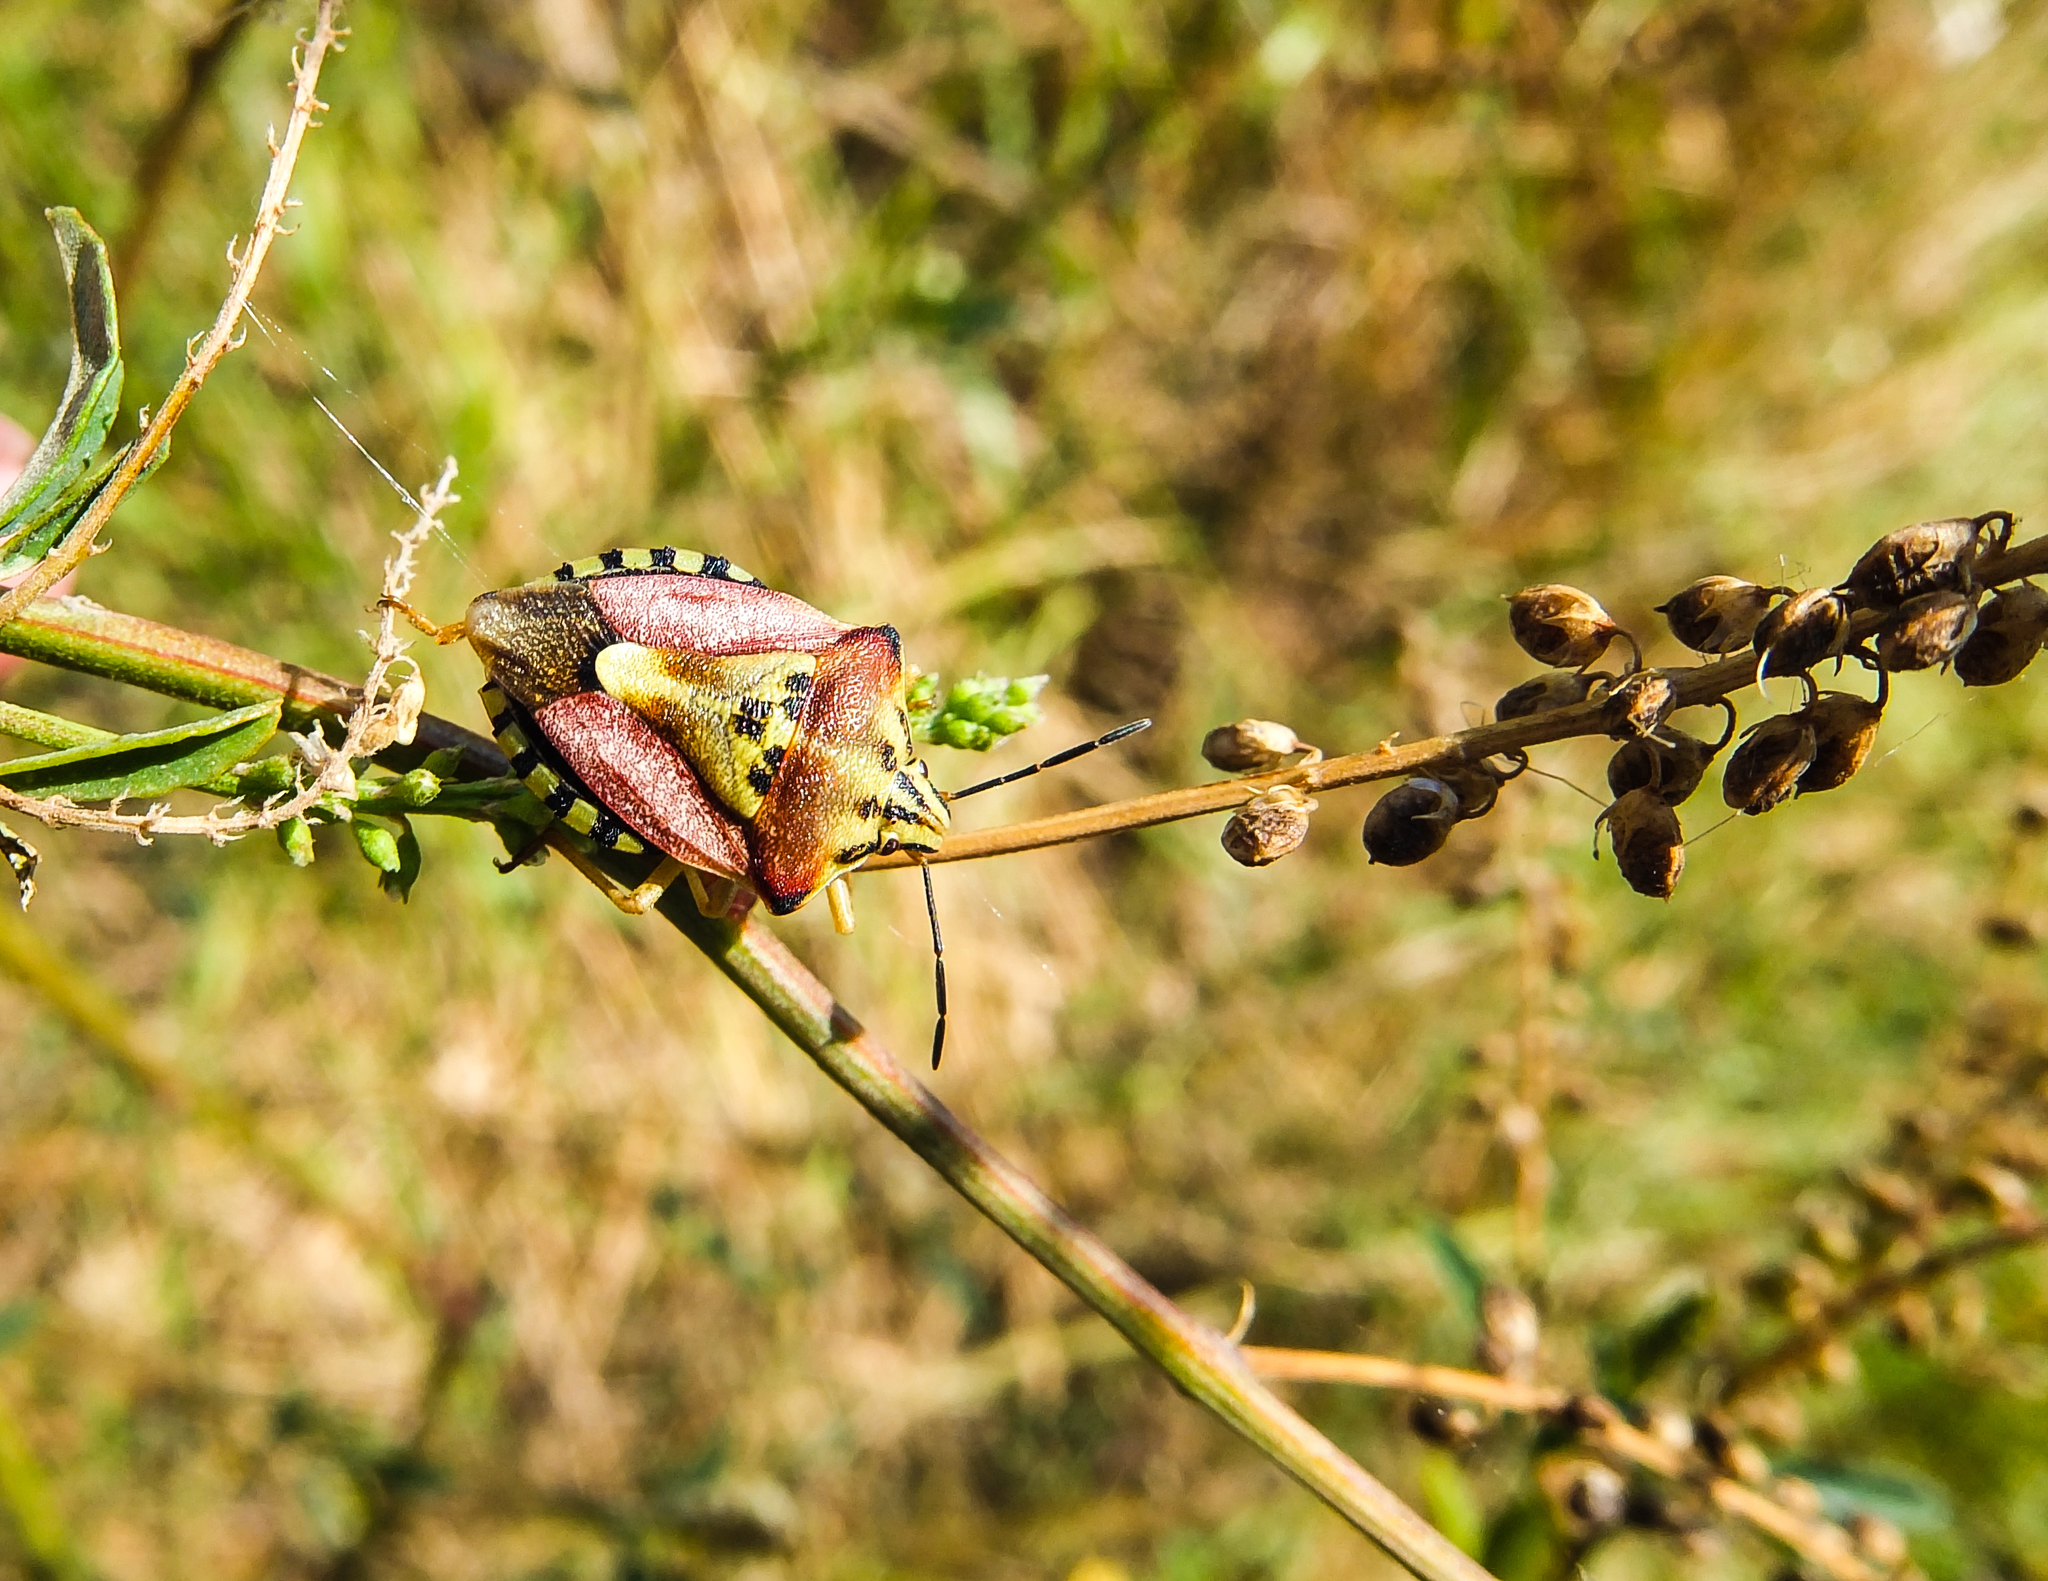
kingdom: Animalia
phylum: Arthropoda
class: Insecta
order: Hemiptera
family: Pentatomidae
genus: Carpocoris
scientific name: Carpocoris purpureipennis
